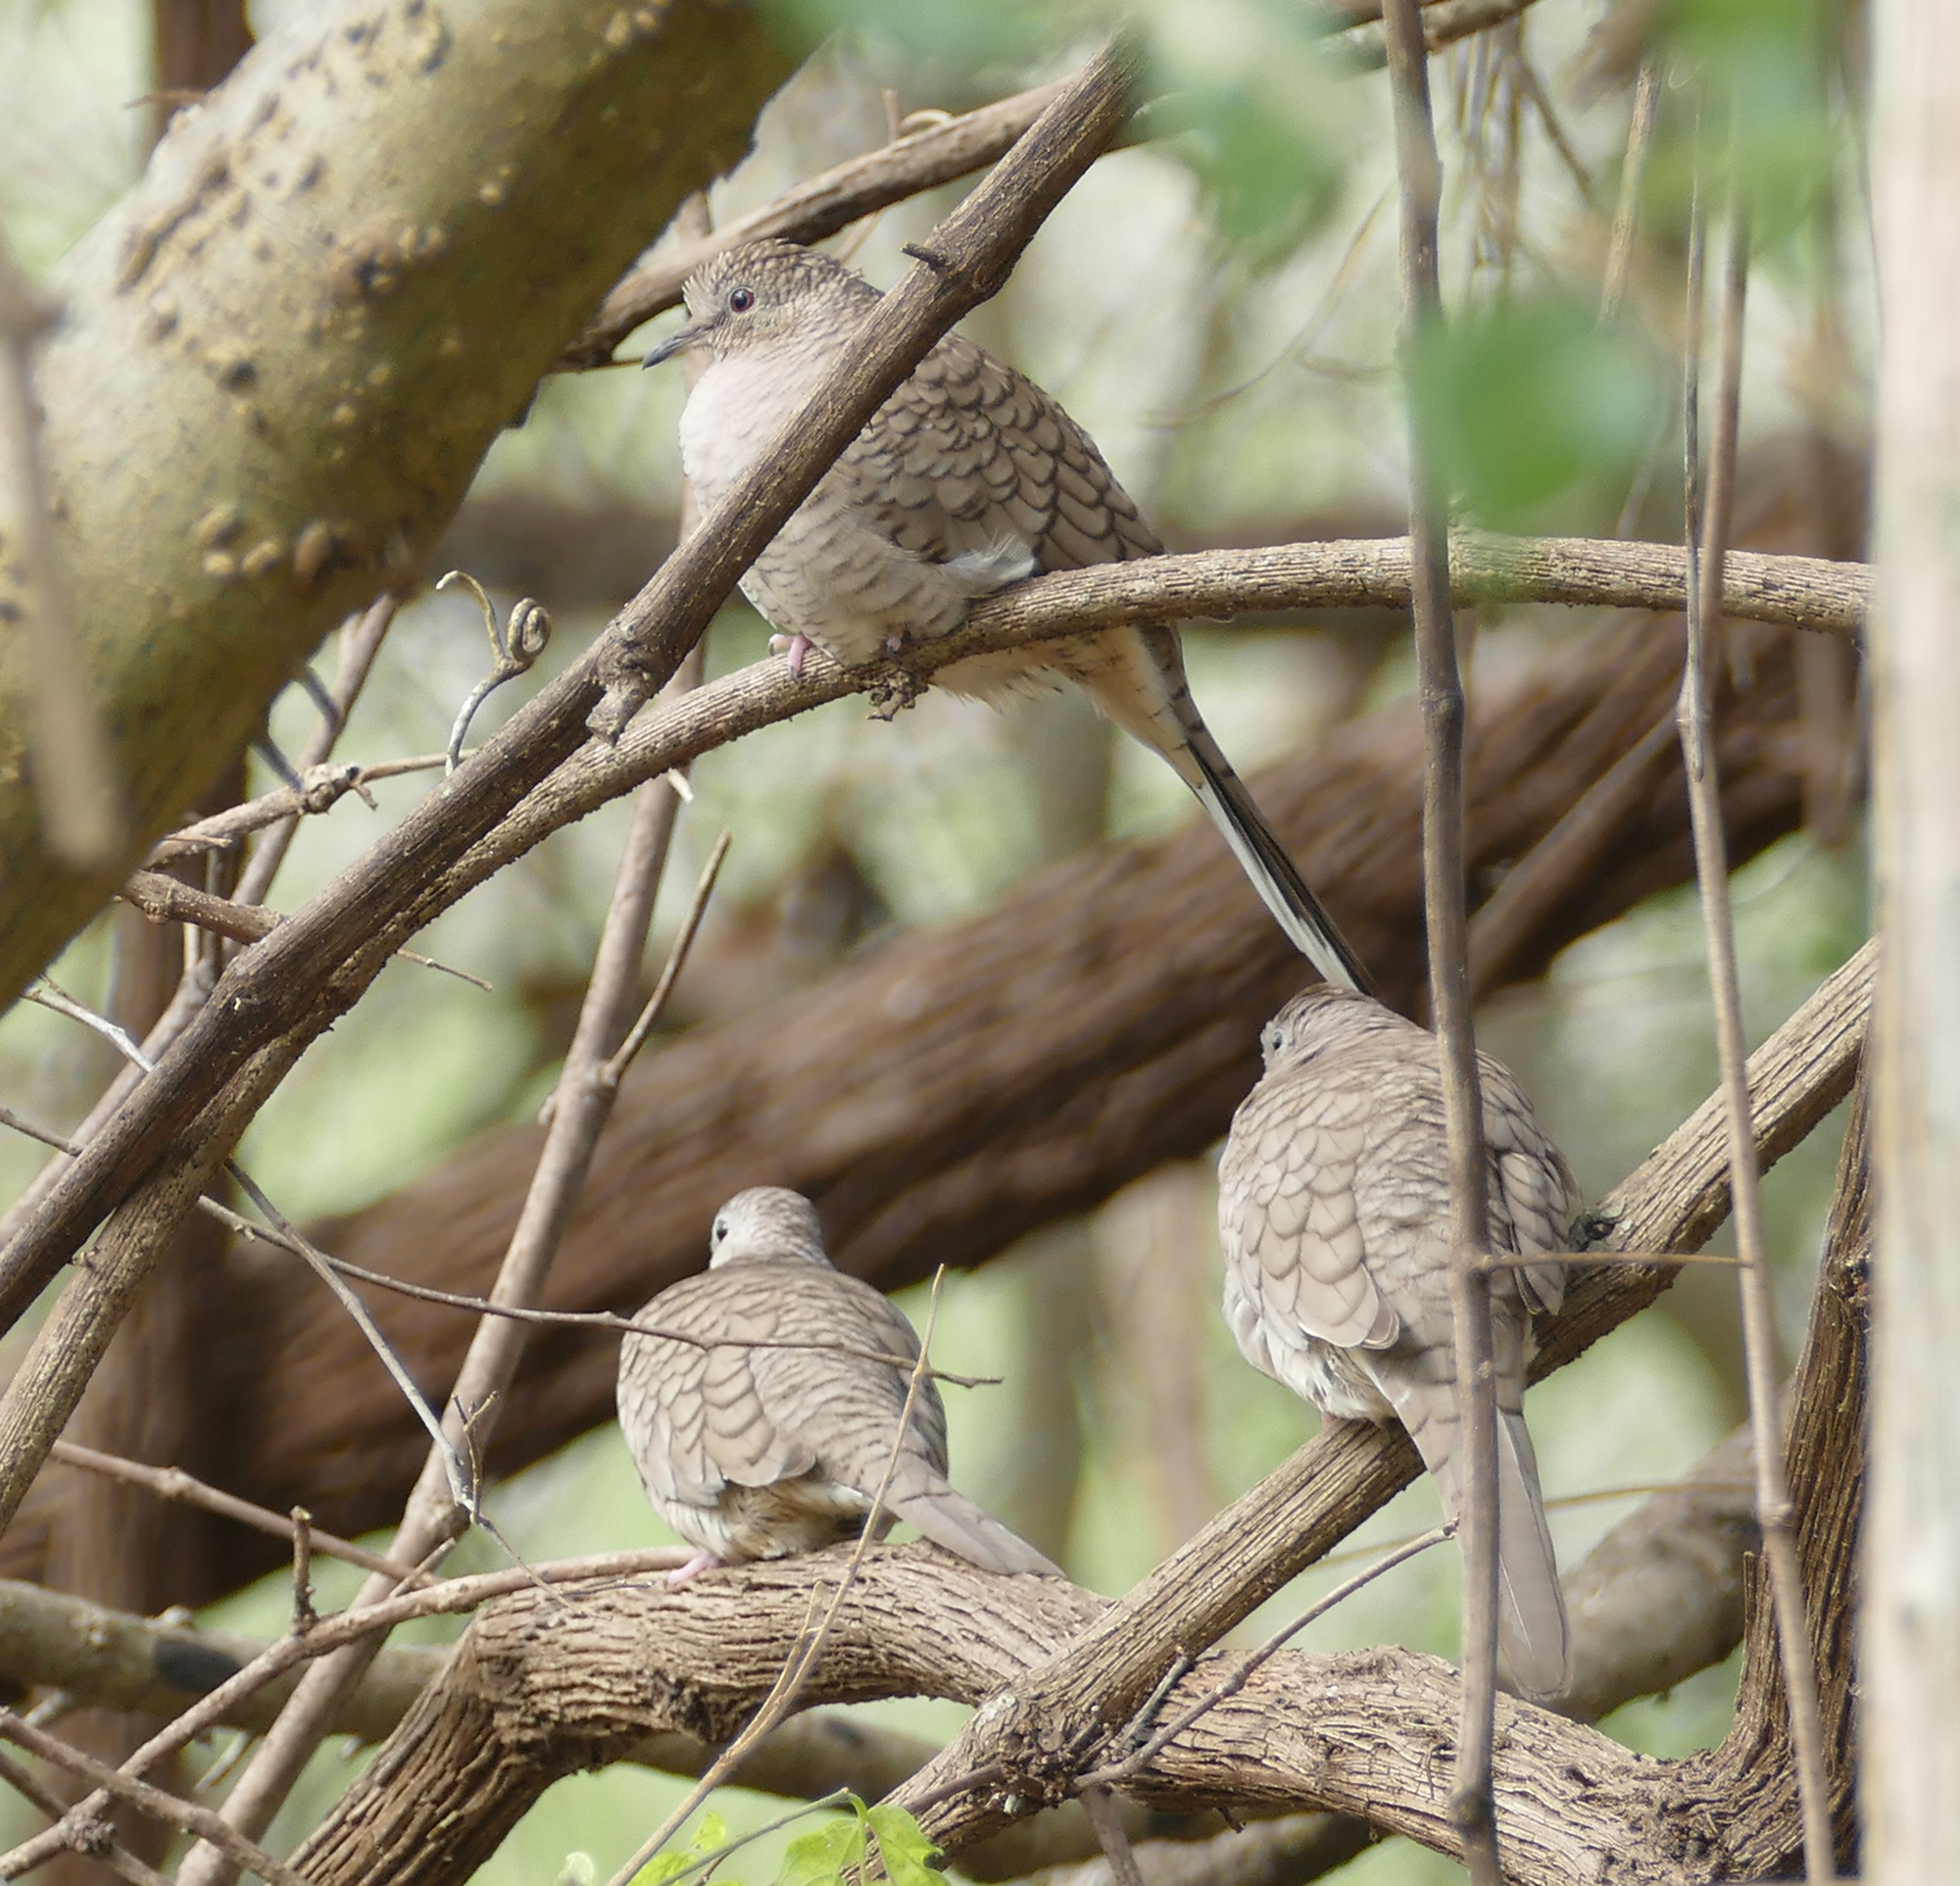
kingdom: Animalia
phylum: Chordata
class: Aves
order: Columbiformes
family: Columbidae
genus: Columbina
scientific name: Columbina inca
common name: Inca dove
